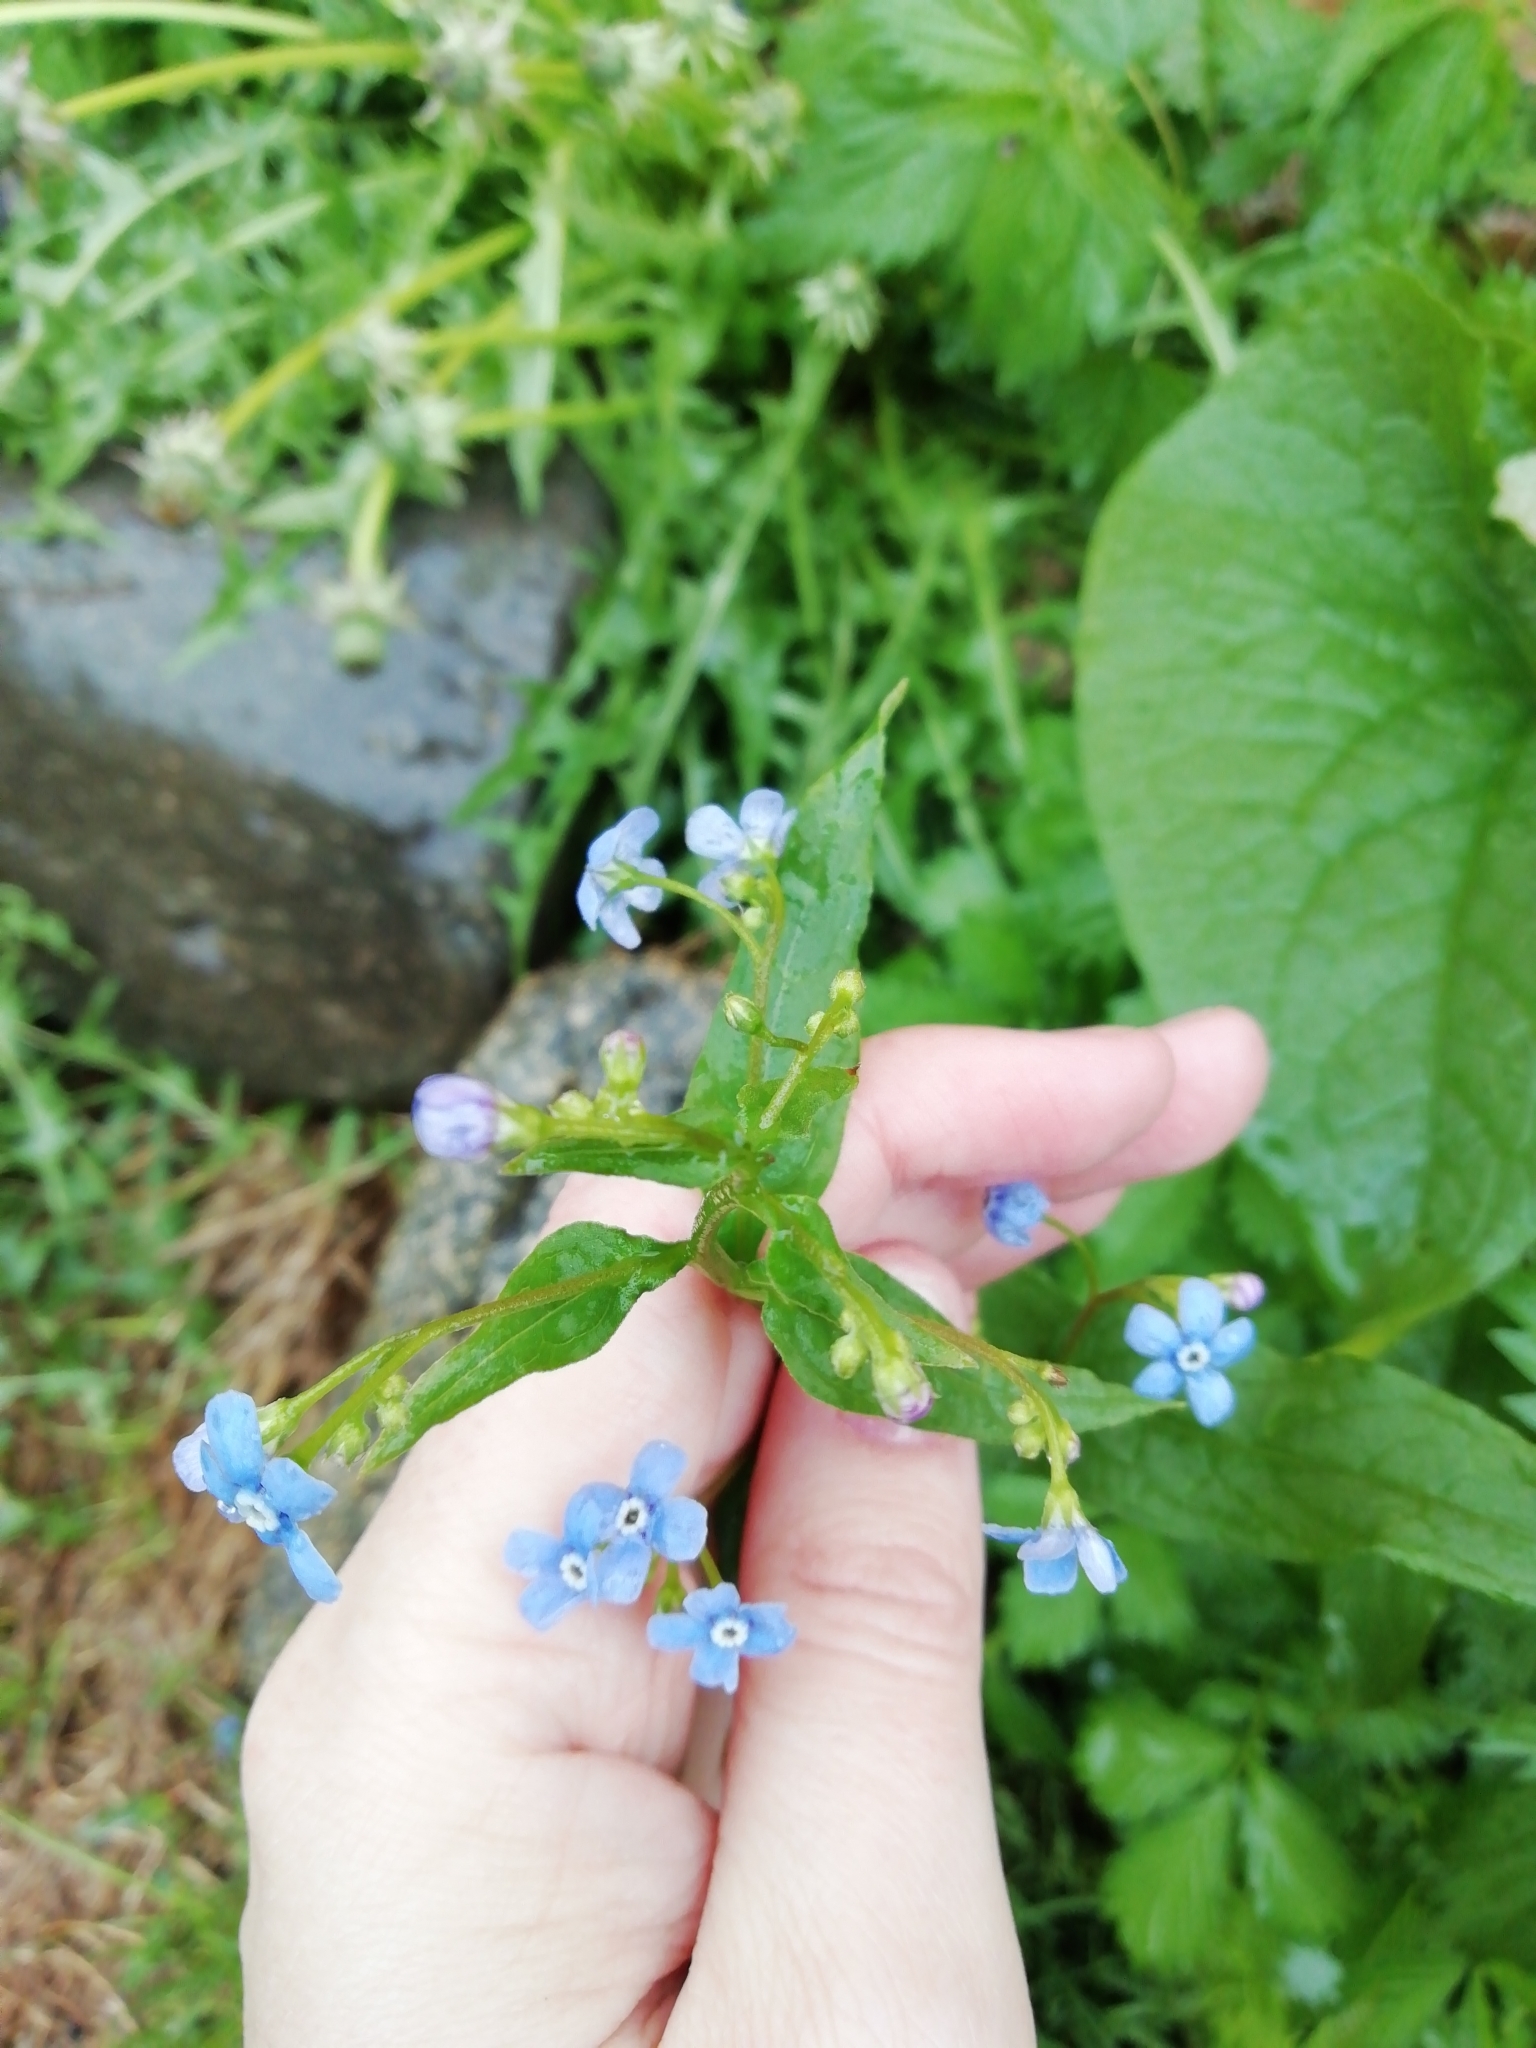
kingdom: Plantae
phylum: Tracheophyta
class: Magnoliopsida
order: Boraginales
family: Boraginaceae
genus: Brunnera
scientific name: Brunnera sibirica
